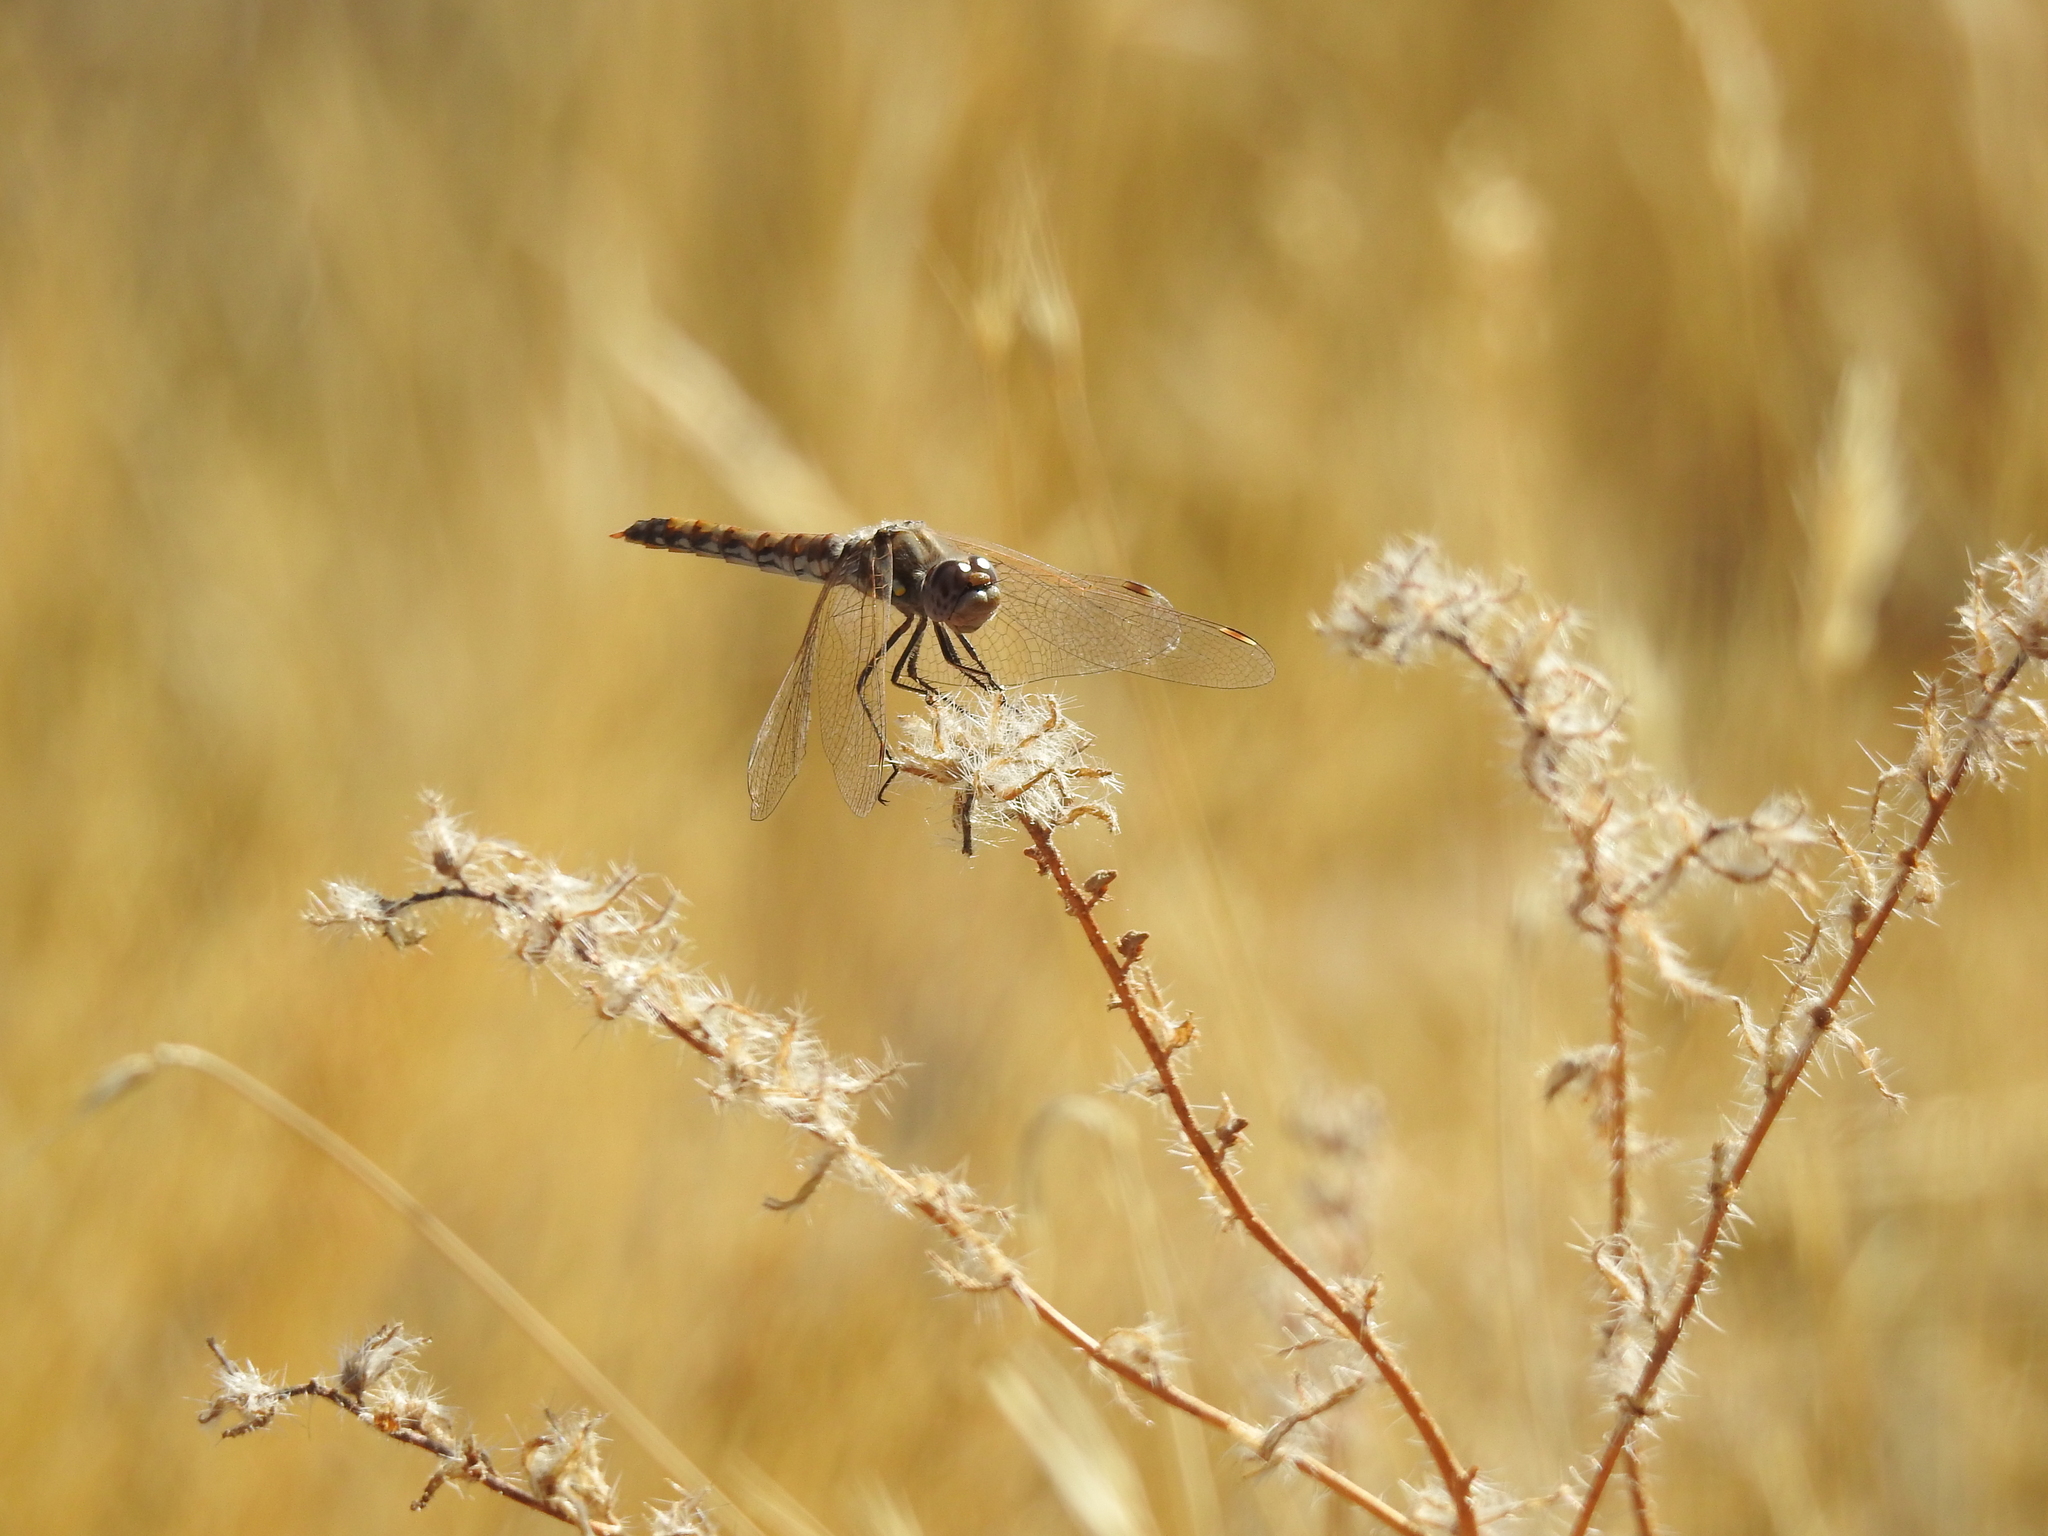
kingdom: Animalia
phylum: Arthropoda
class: Insecta
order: Odonata
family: Libellulidae
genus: Sympetrum
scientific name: Sympetrum corruptum
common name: Variegated meadowhawk
